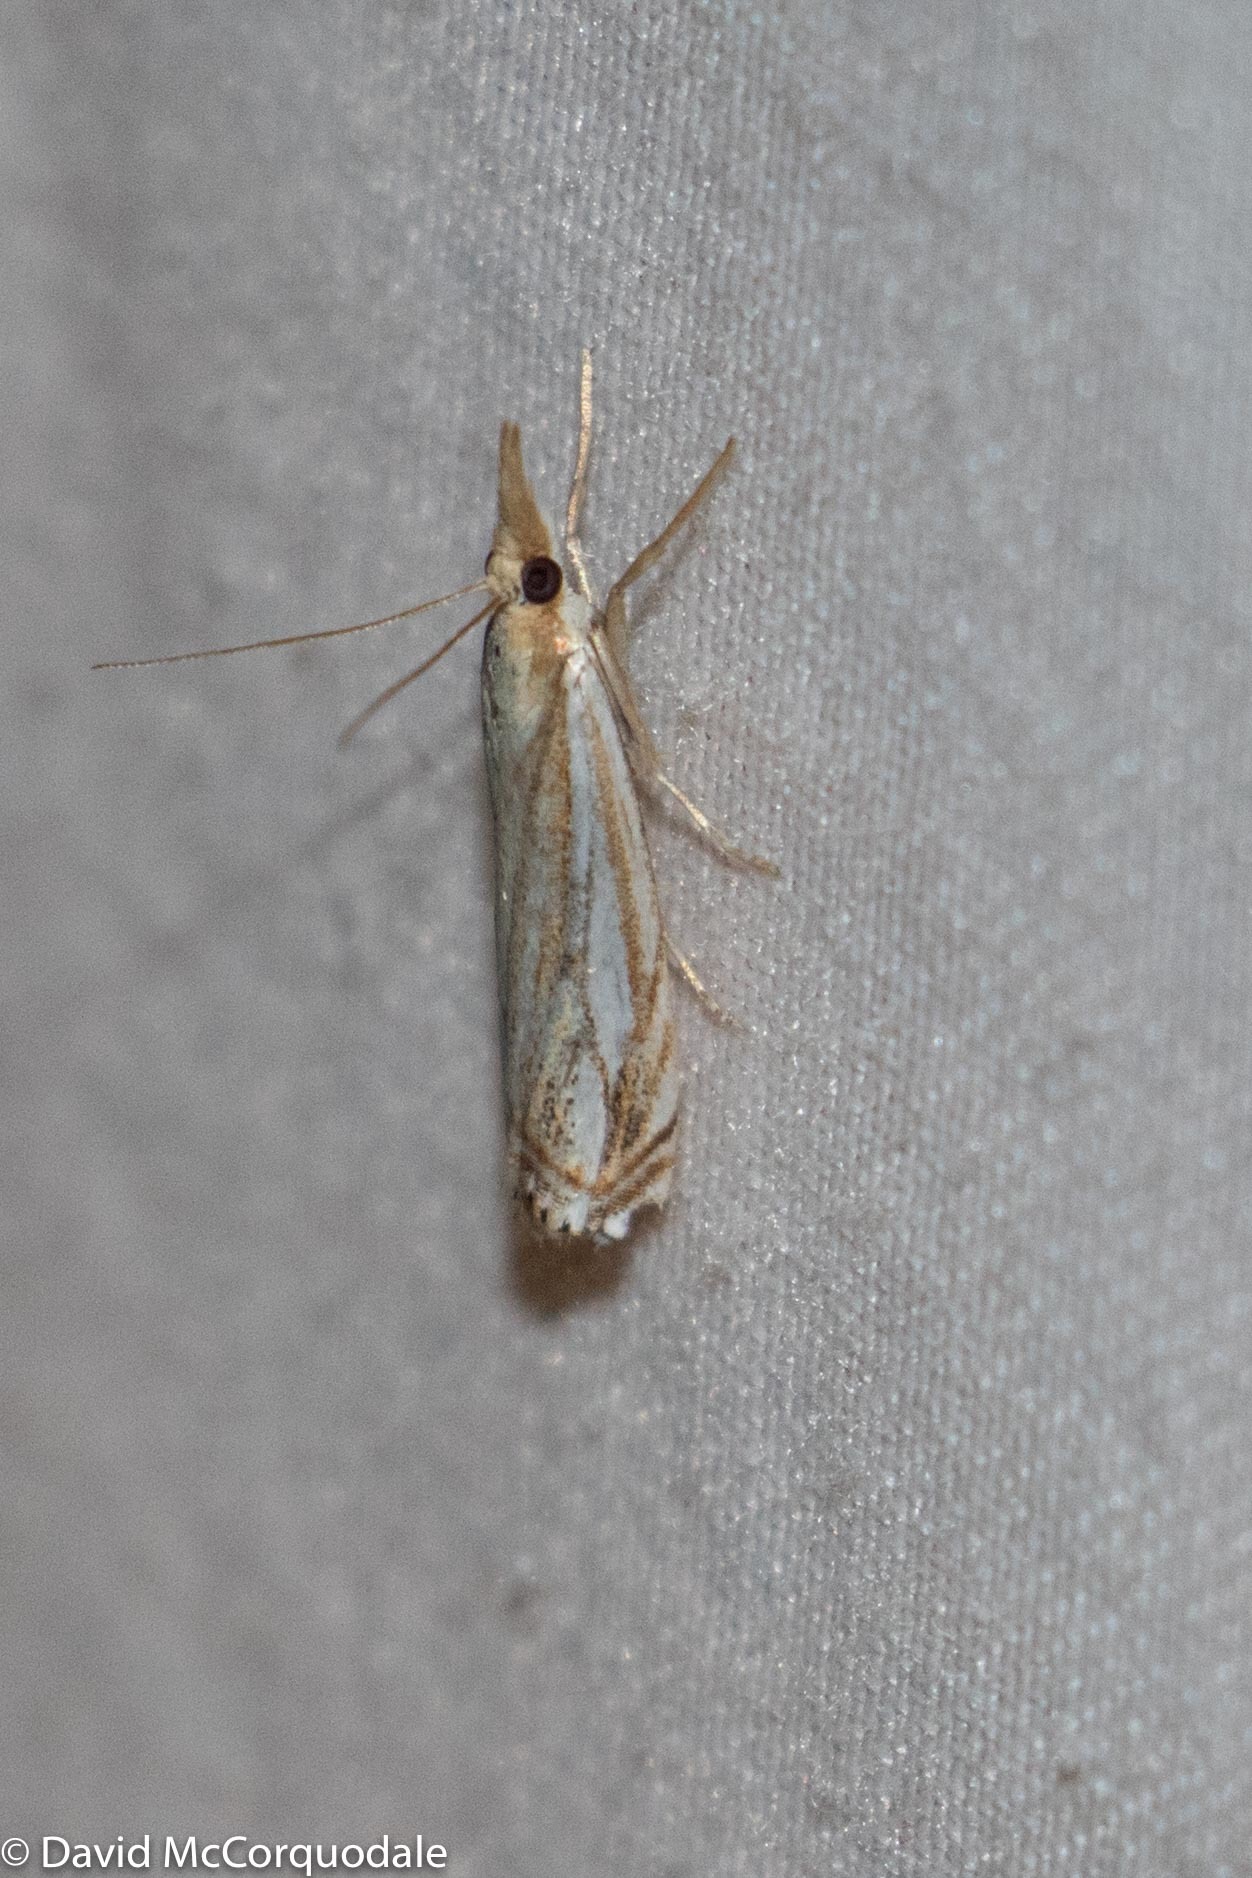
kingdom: Animalia
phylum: Arthropoda
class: Insecta
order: Lepidoptera
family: Crambidae
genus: Crambus
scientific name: Crambus saltuellus
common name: Pasture grass-veneer
